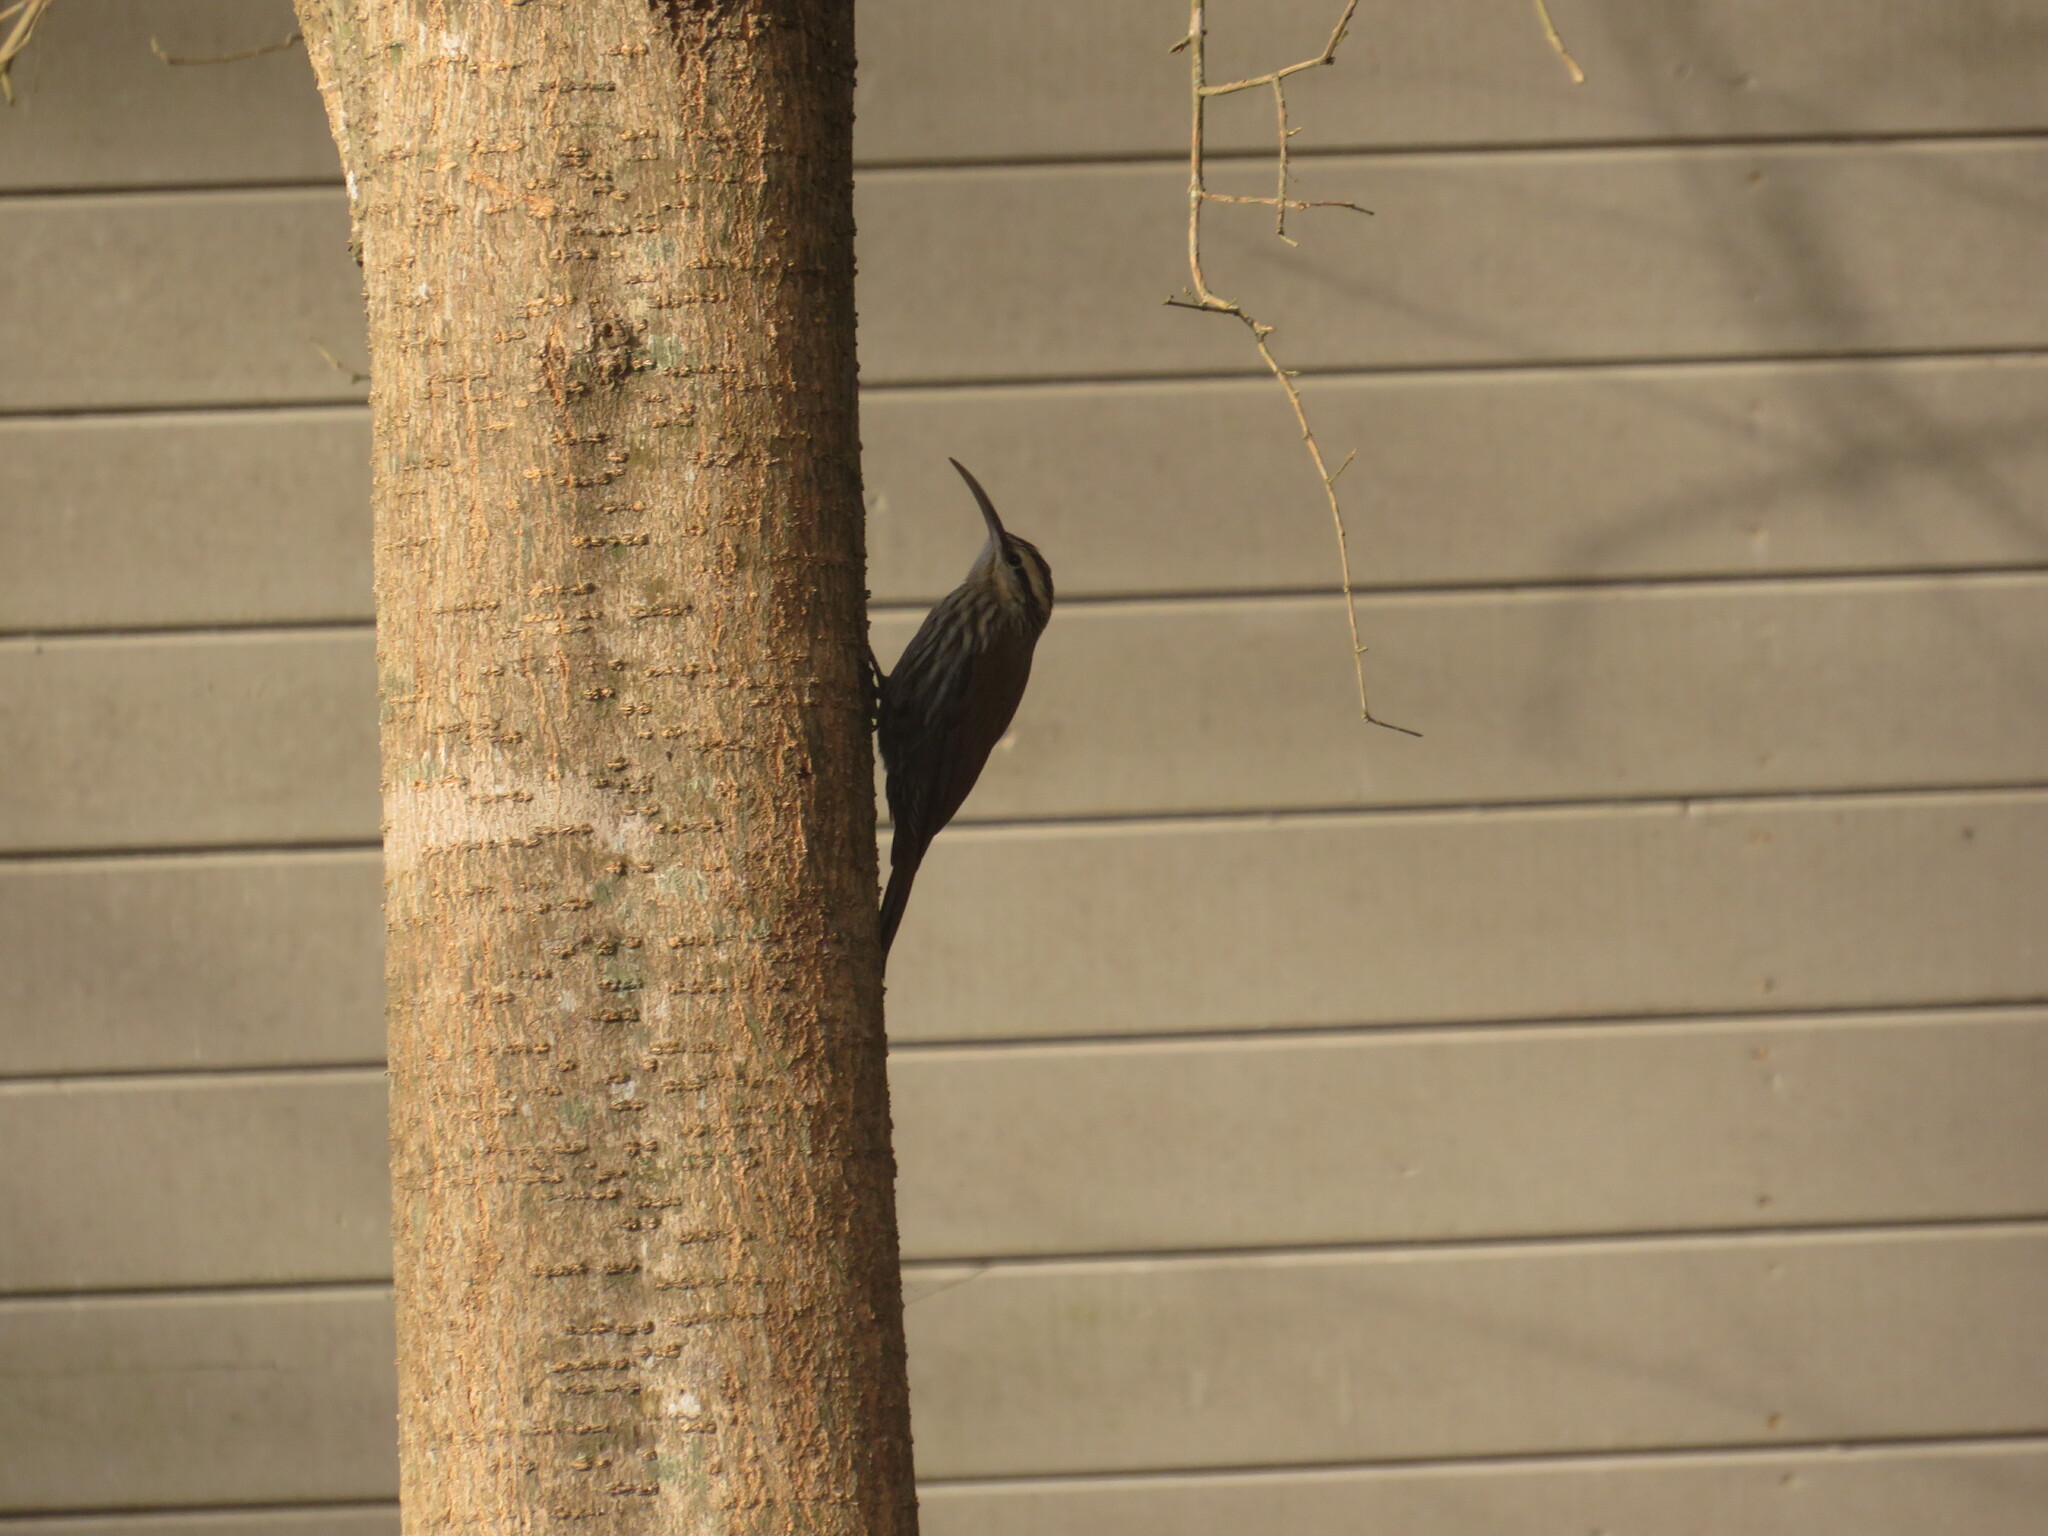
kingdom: Animalia
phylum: Chordata
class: Aves
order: Passeriformes
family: Furnariidae
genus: Lepidocolaptes
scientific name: Lepidocolaptes angustirostris
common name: Narrow-billed woodcreeper
